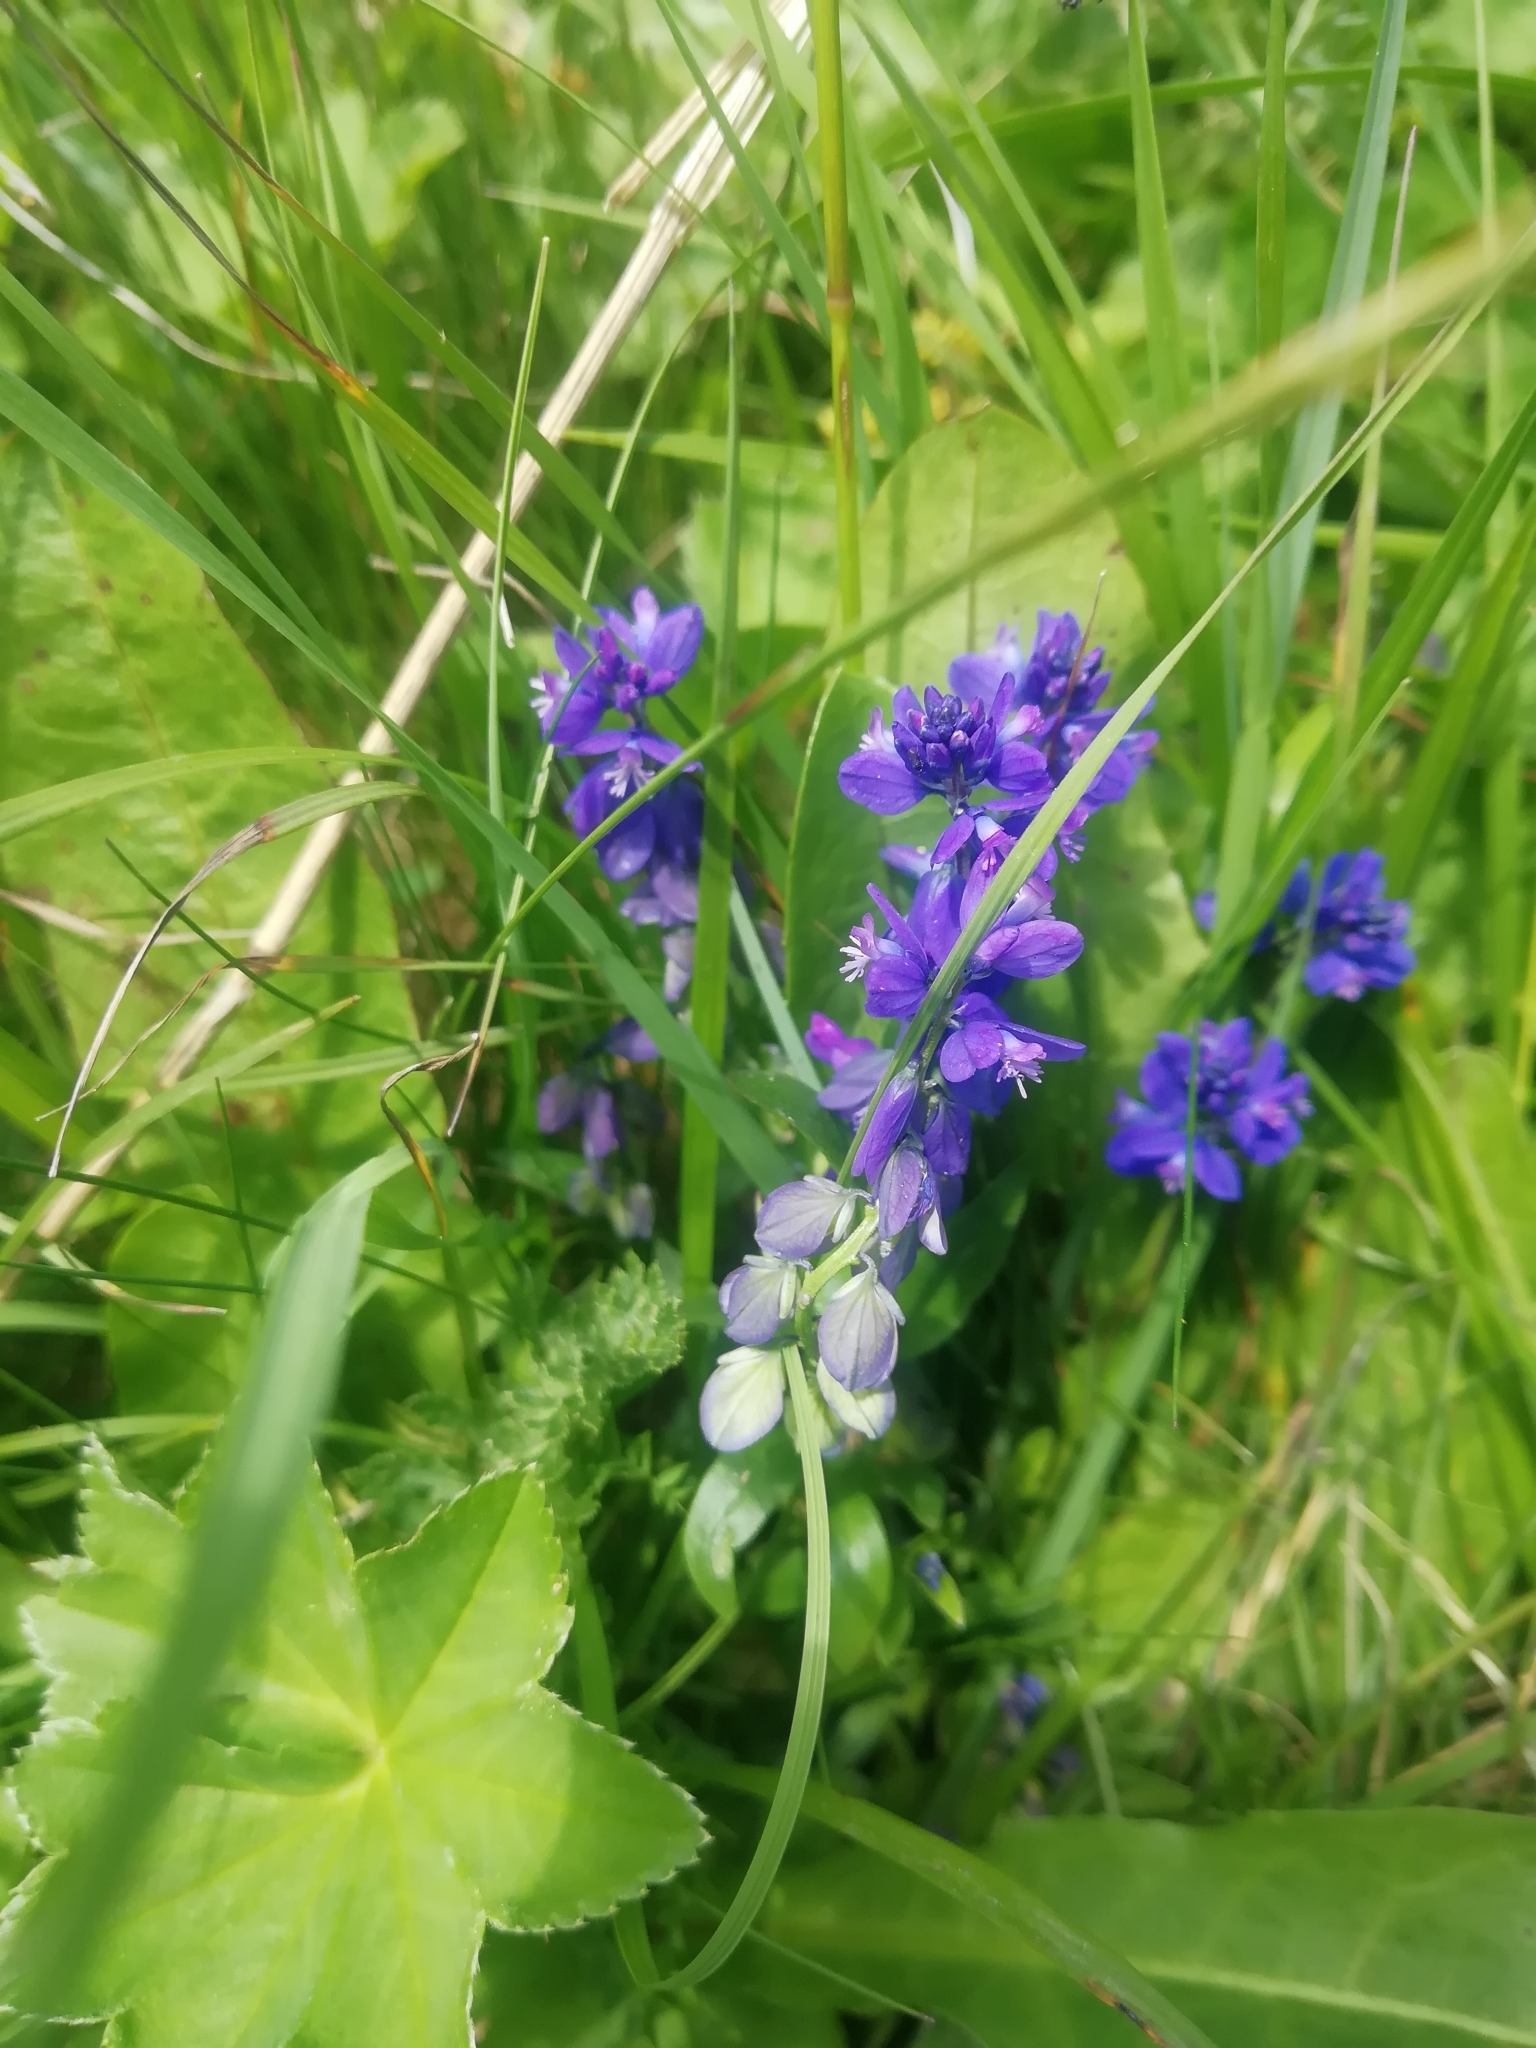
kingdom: Plantae
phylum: Tracheophyta
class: Magnoliopsida
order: Fabales
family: Polygalaceae
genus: Polygala
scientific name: Polygala caucasica
